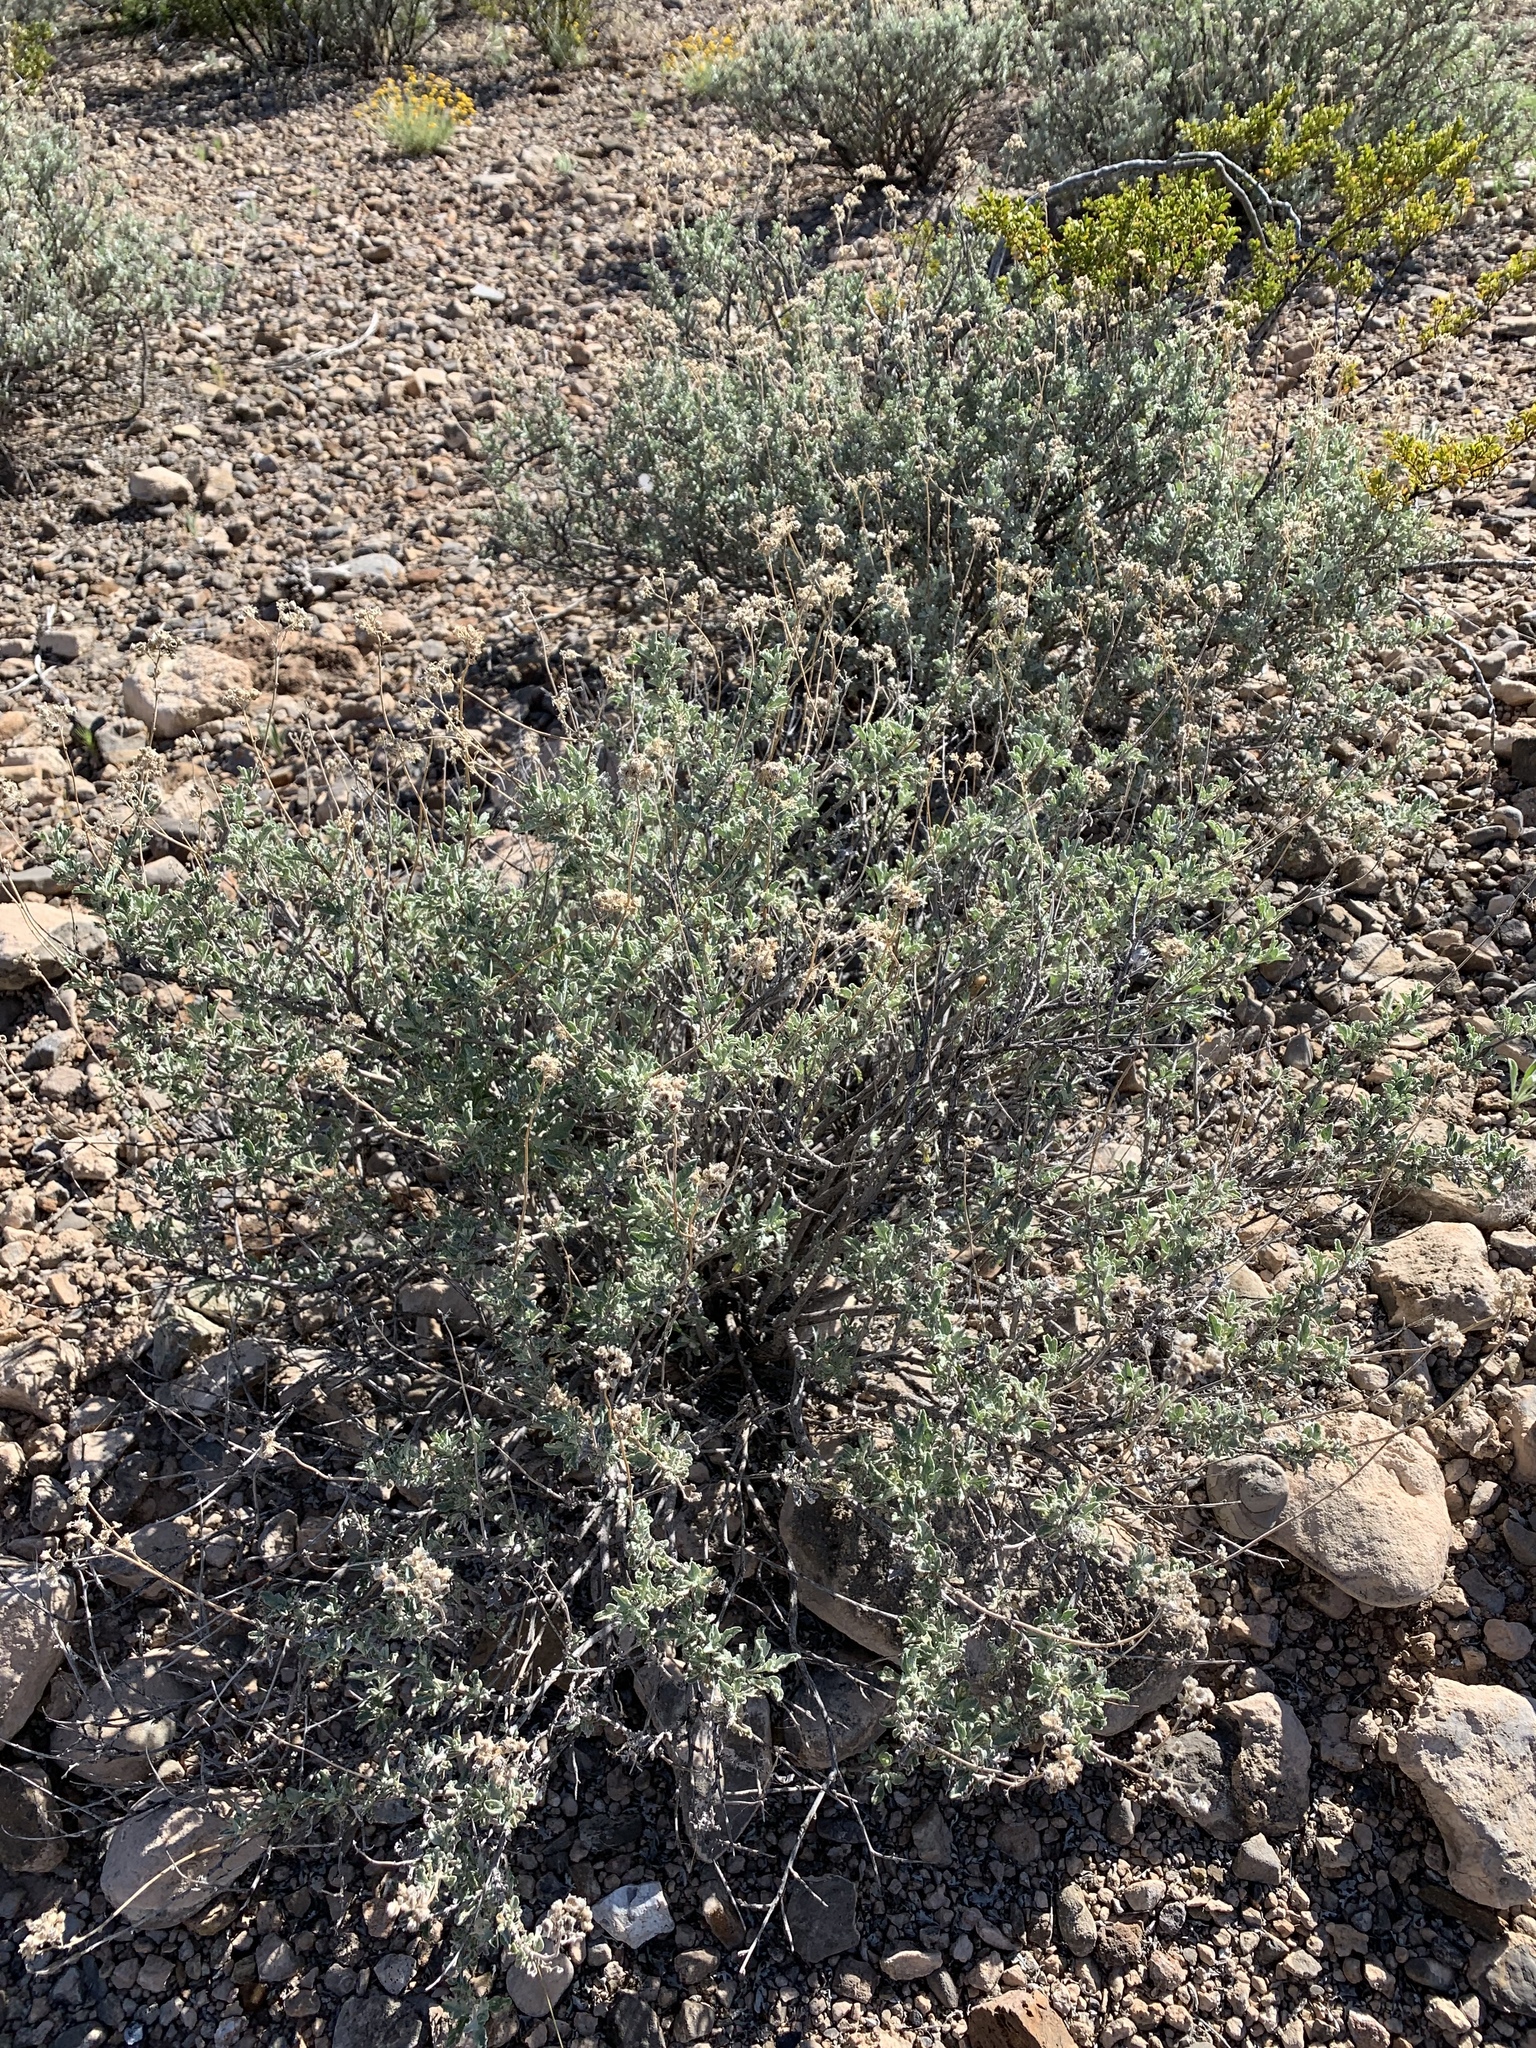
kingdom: Plantae
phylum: Tracheophyta
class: Magnoliopsida
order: Asterales
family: Asteraceae
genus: Parthenium
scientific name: Parthenium incanum
